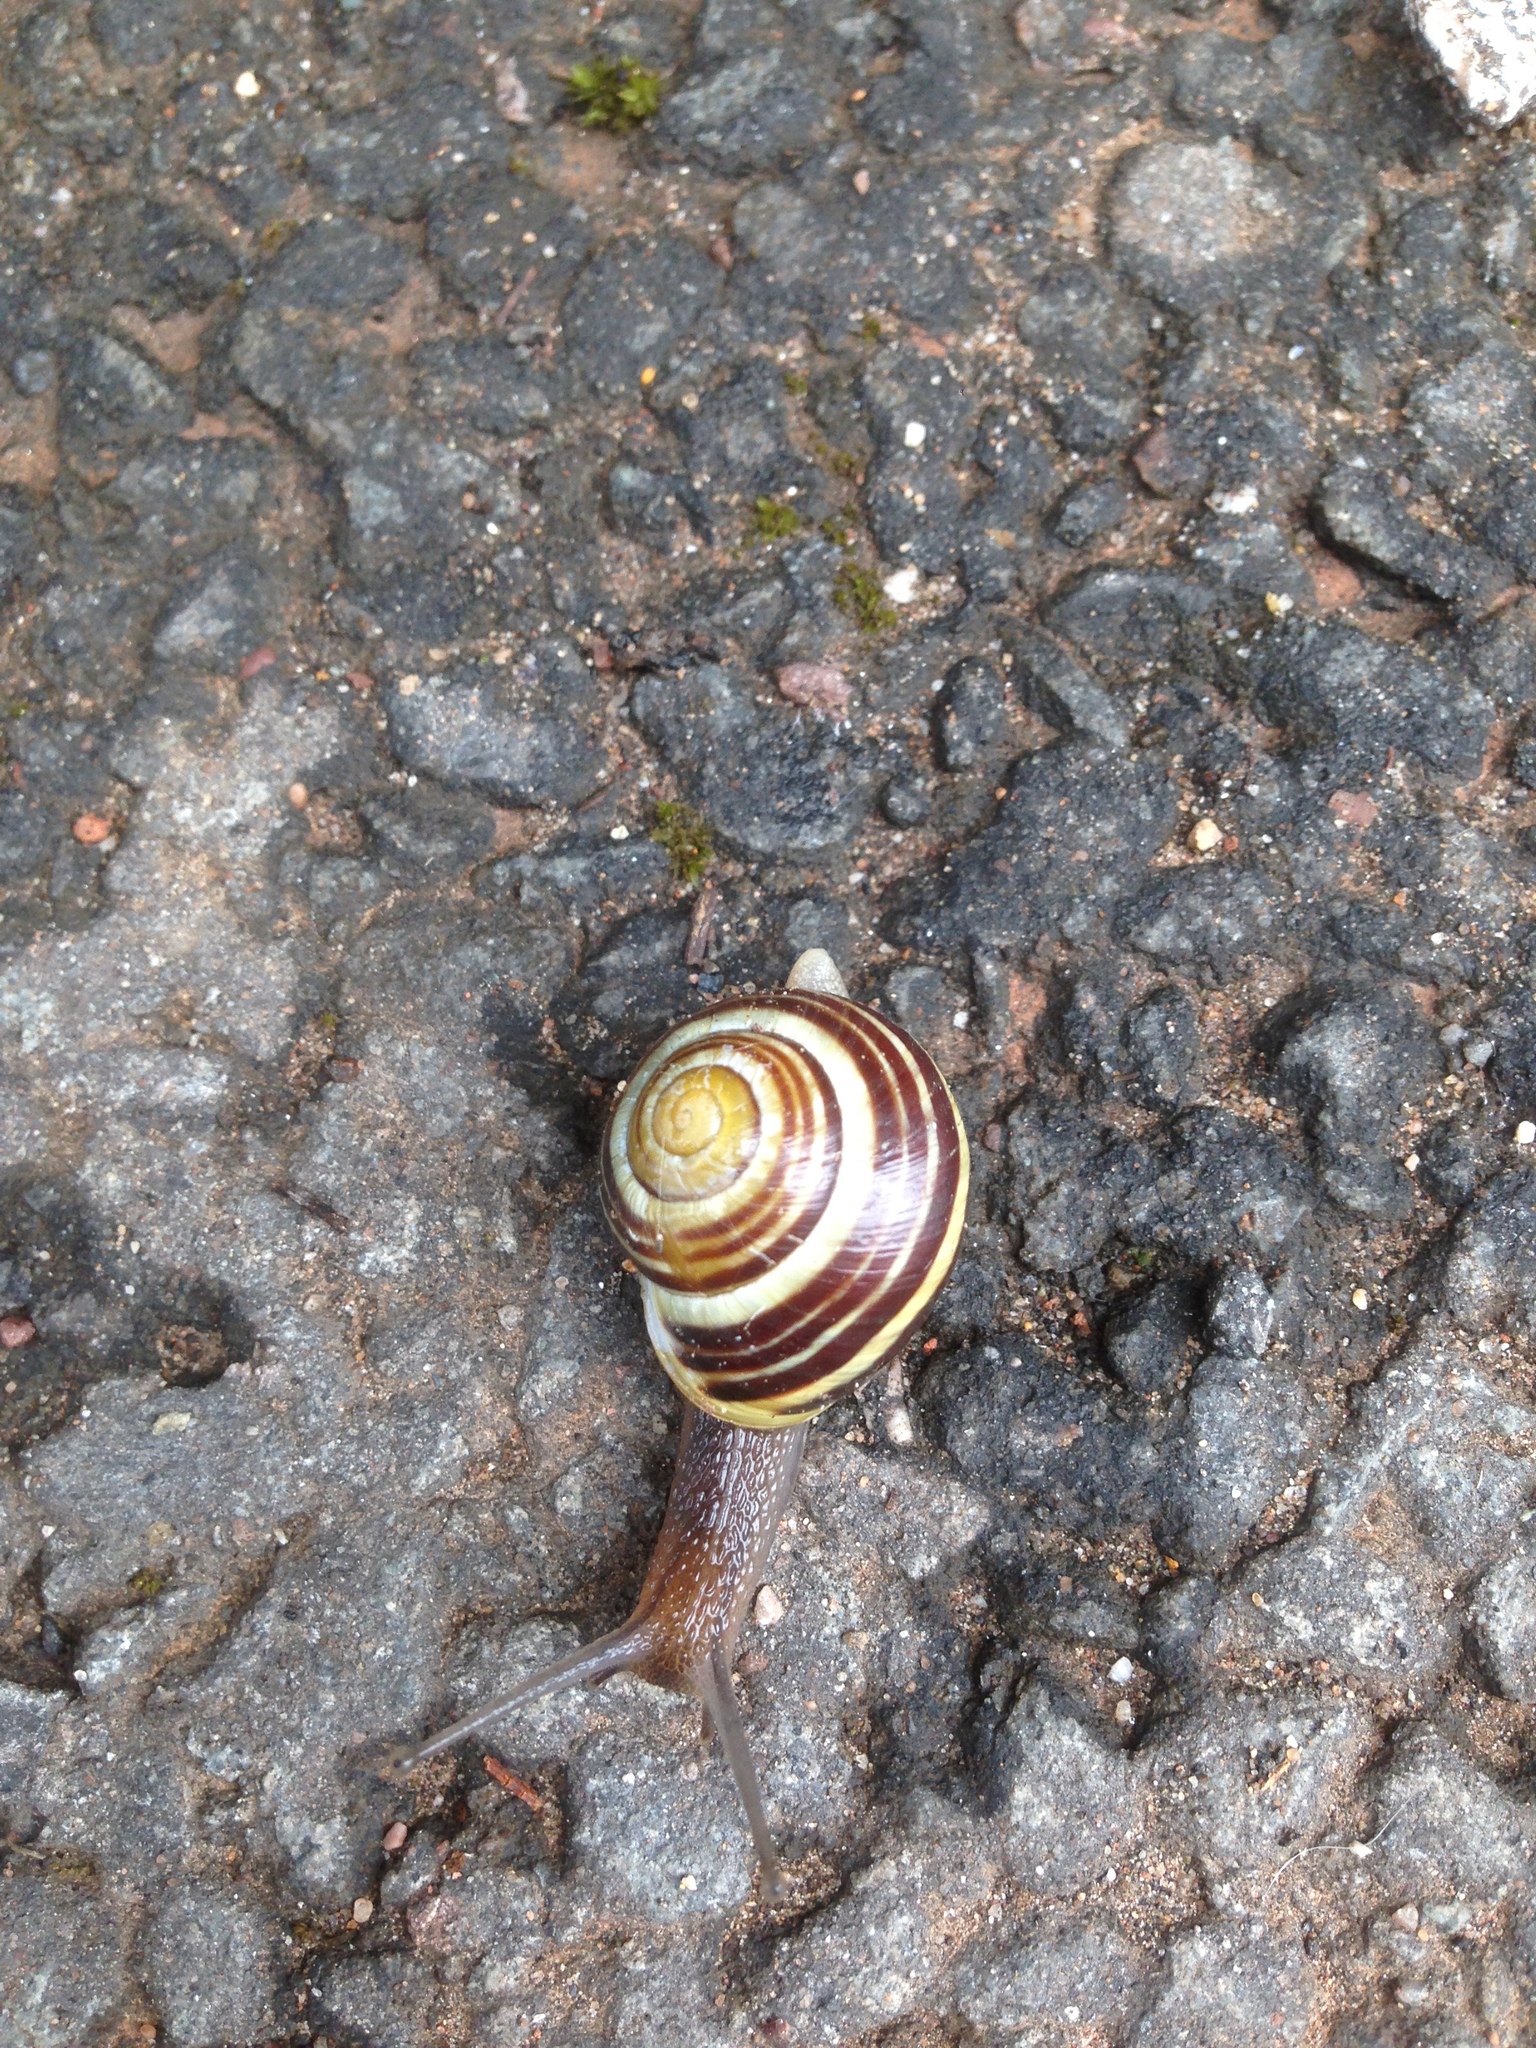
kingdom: Animalia
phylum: Mollusca
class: Gastropoda
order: Stylommatophora
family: Helicidae
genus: Cepaea
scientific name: Cepaea hortensis
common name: White-lip gardensnail
